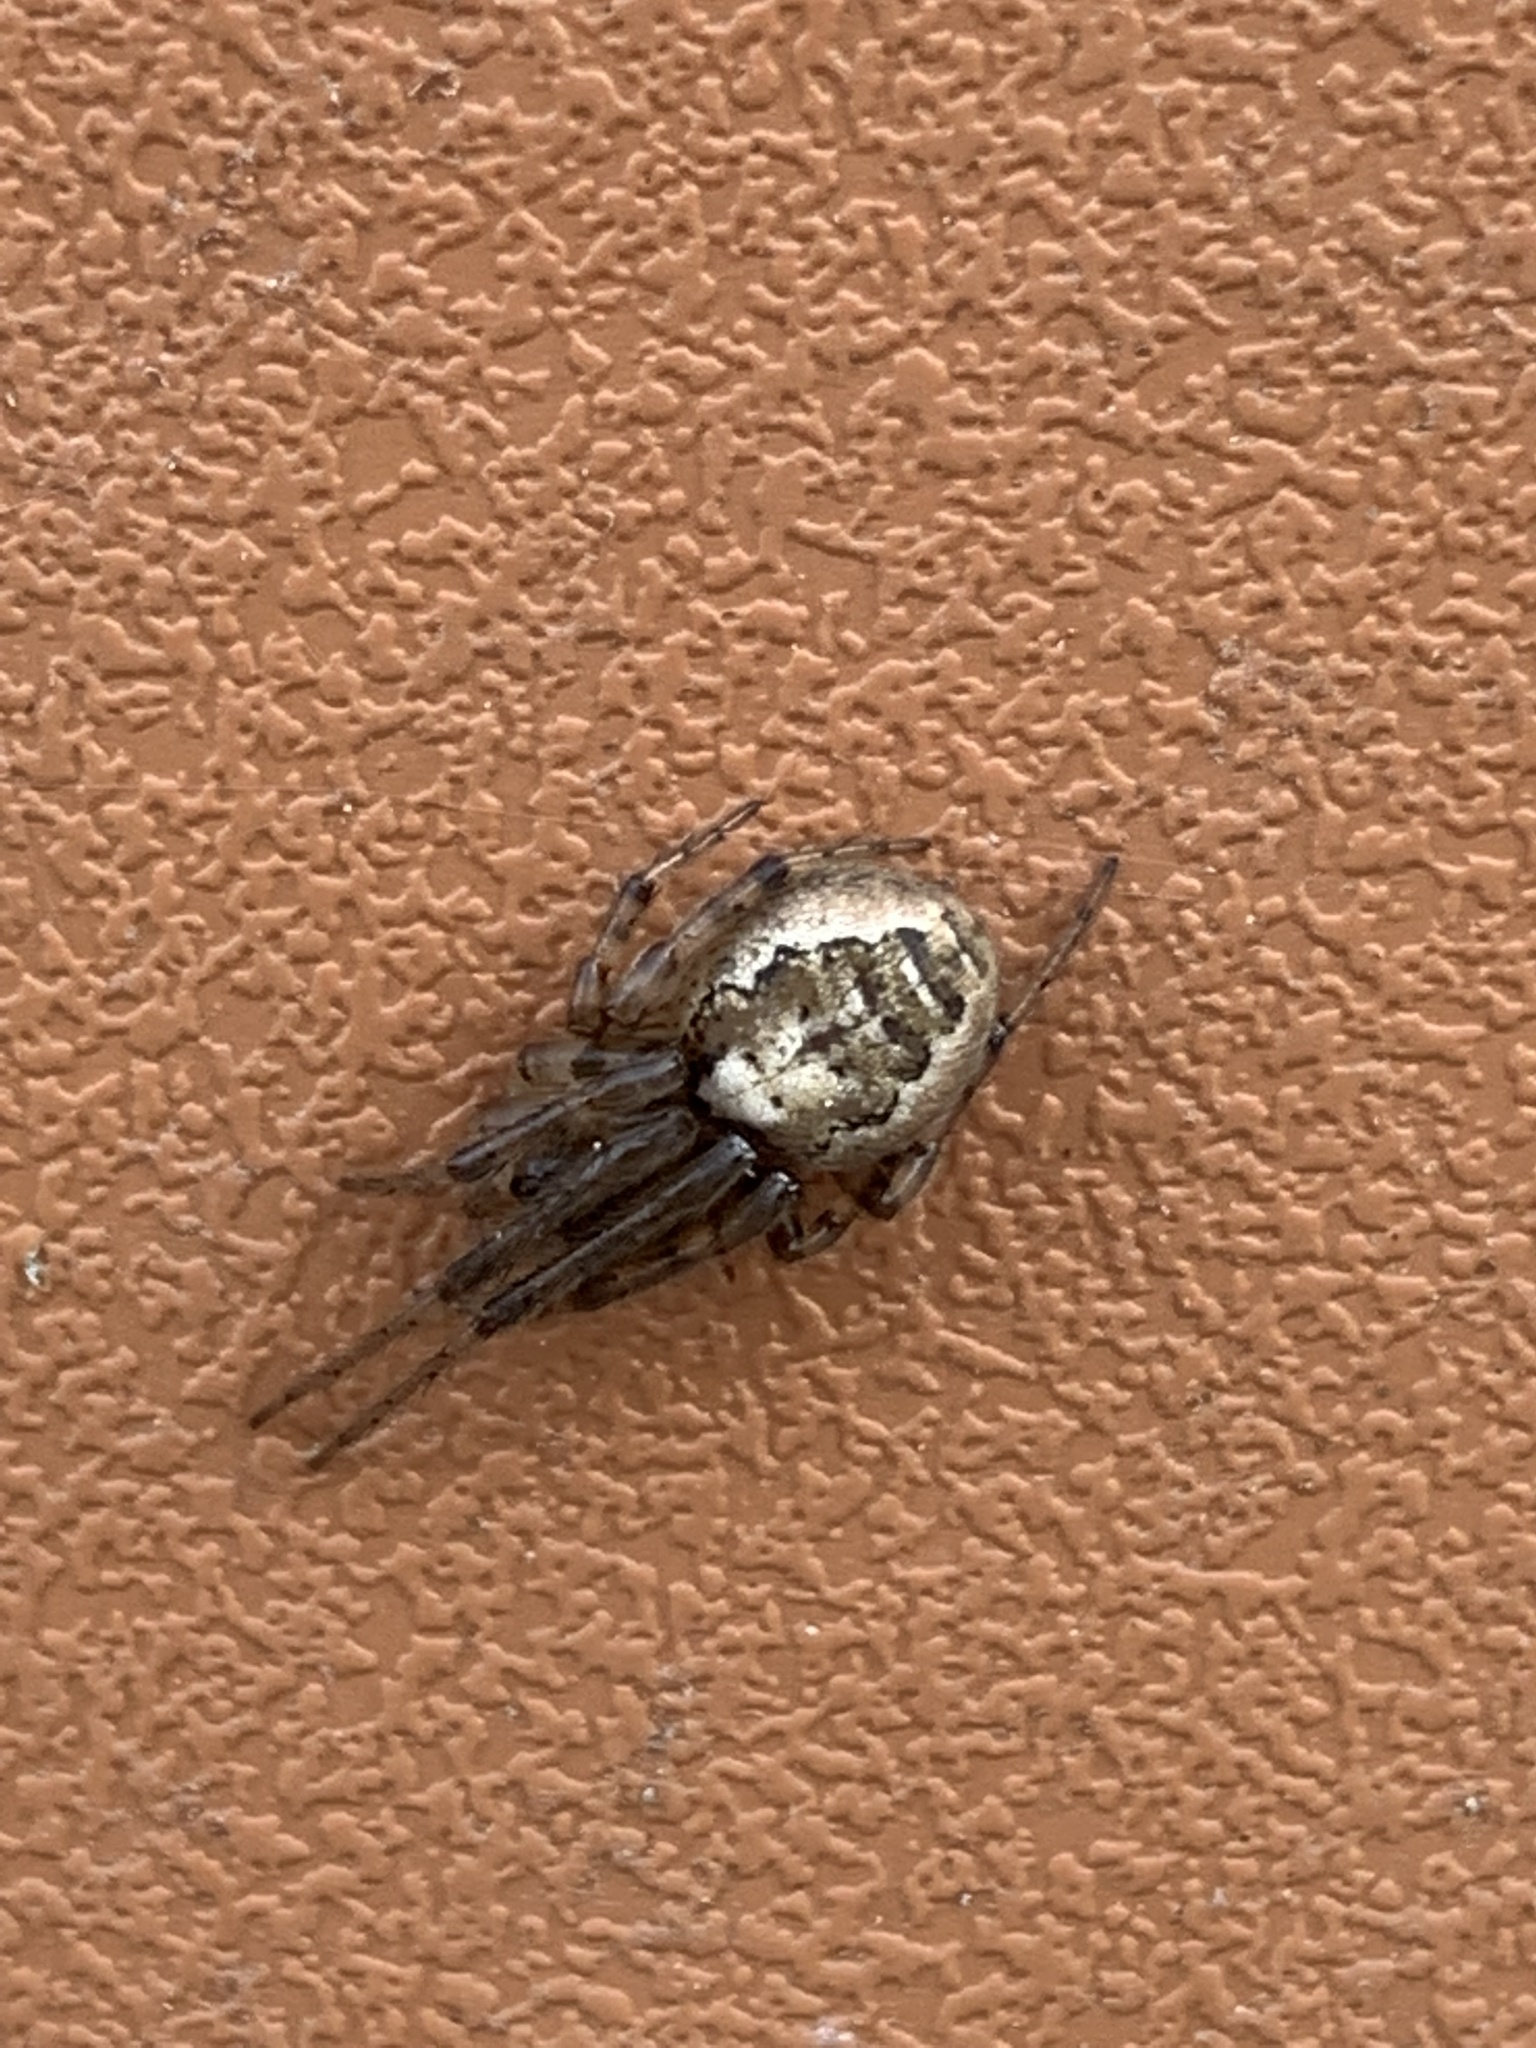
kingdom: Animalia
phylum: Arthropoda
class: Arachnida
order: Araneae
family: Araneidae
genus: Zygiella
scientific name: Zygiella x-notata
